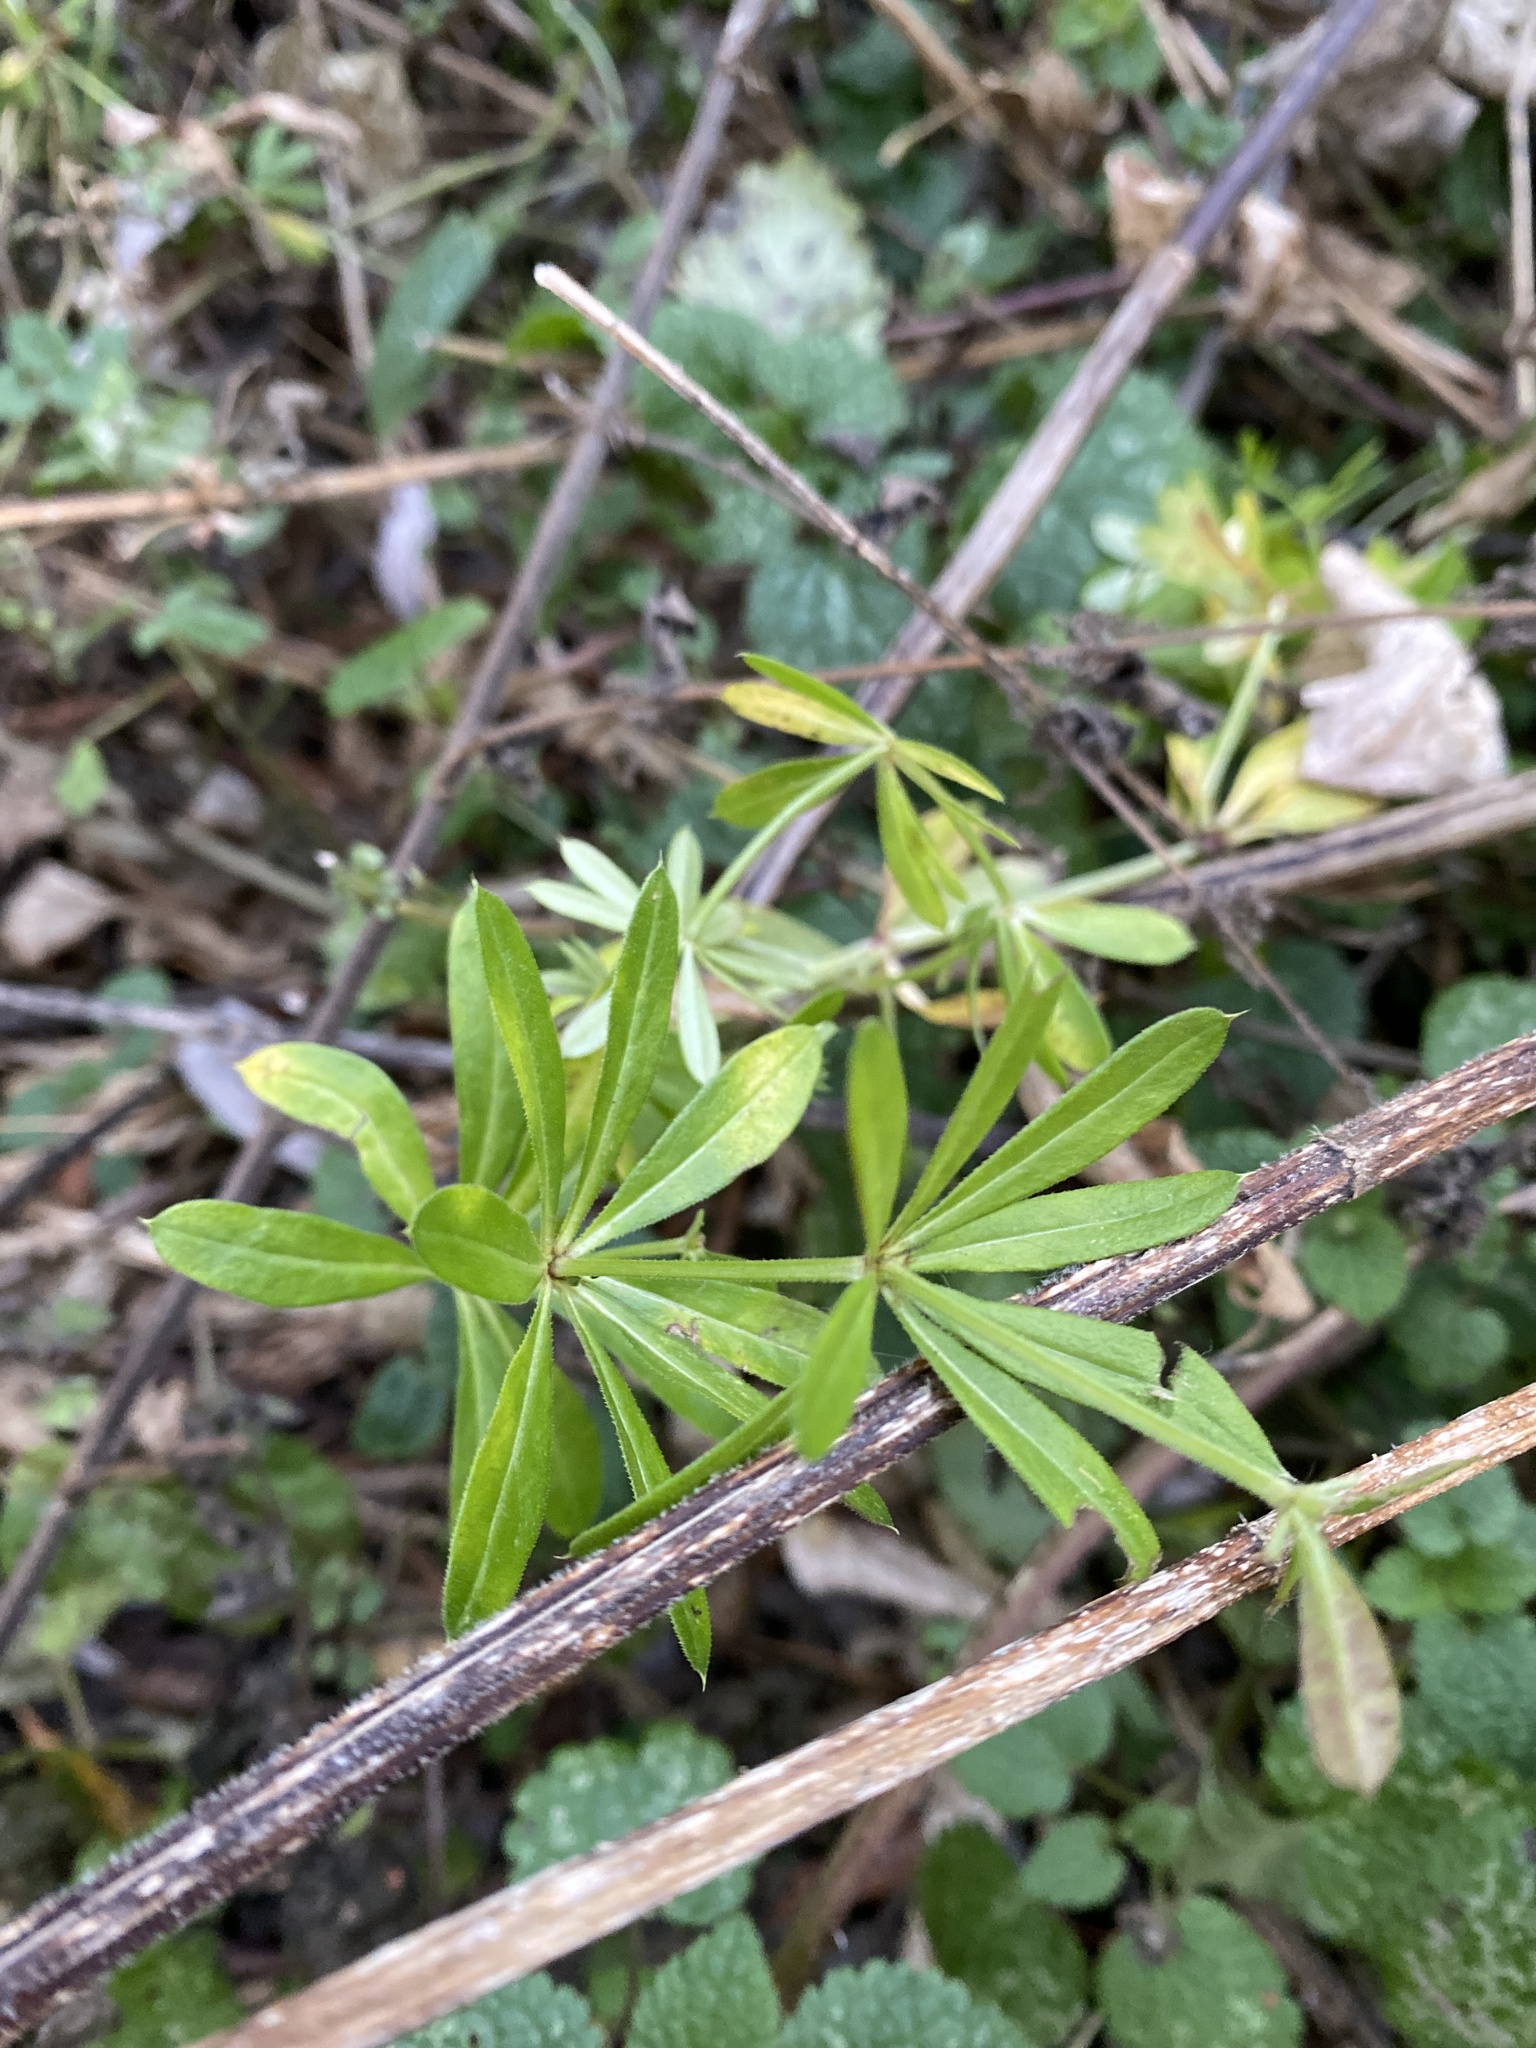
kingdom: Plantae
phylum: Tracheophyta
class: Magnoliopsida
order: Gentianales
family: Rubiaceae
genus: Galium
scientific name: Galium rivale
